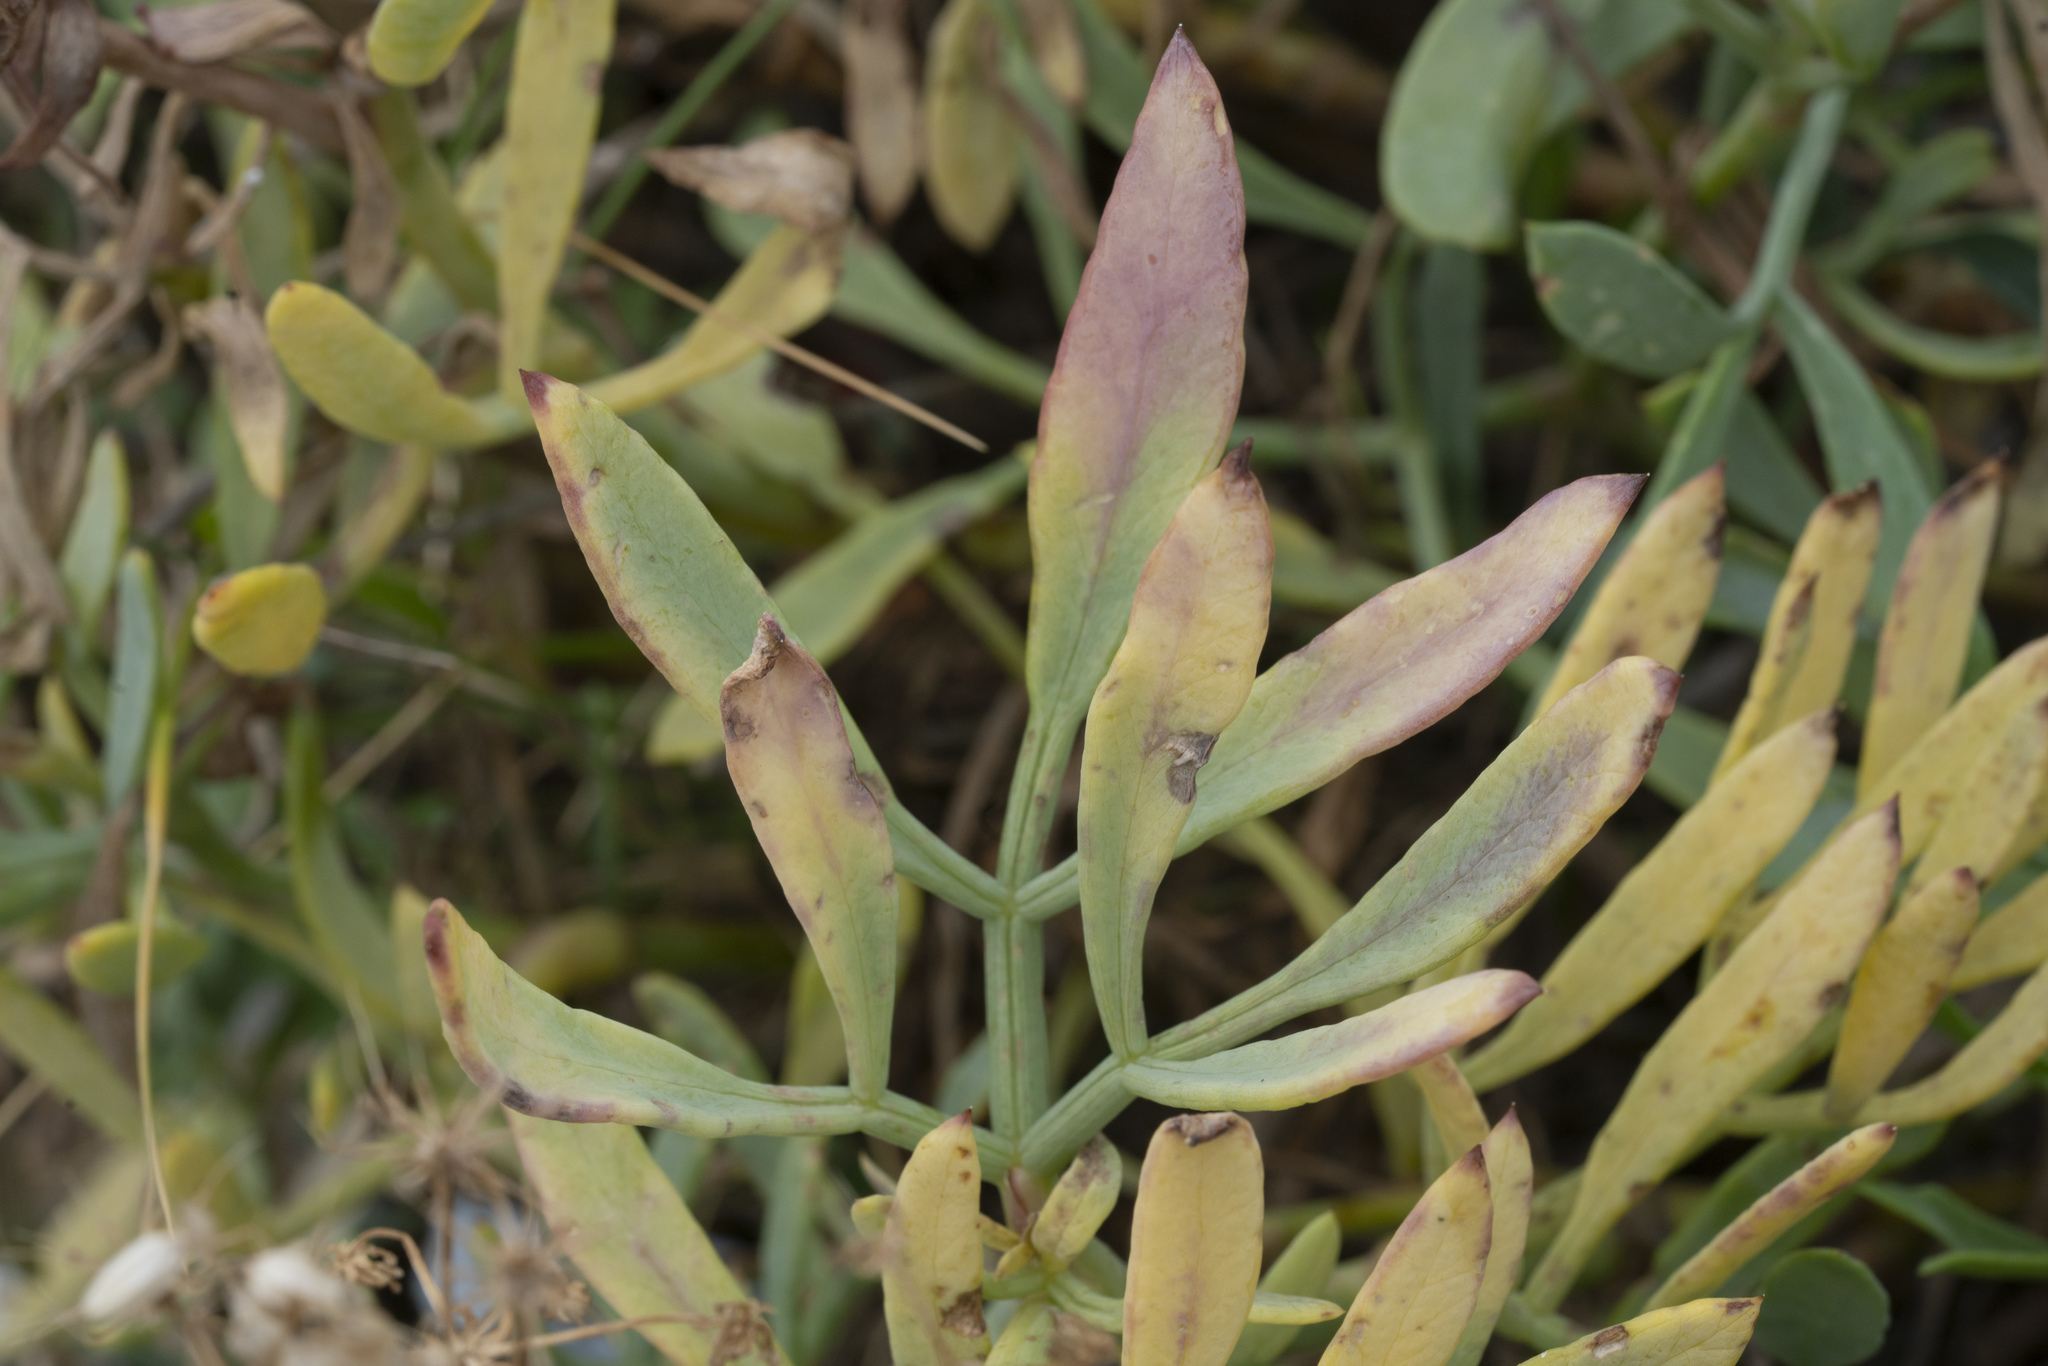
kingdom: Plantae
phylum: Tracheophyta
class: Magnoliopsida
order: Apiales
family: Apiaceae
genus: Crithmum
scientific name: Crithmum maritimum
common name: Rock samphire
